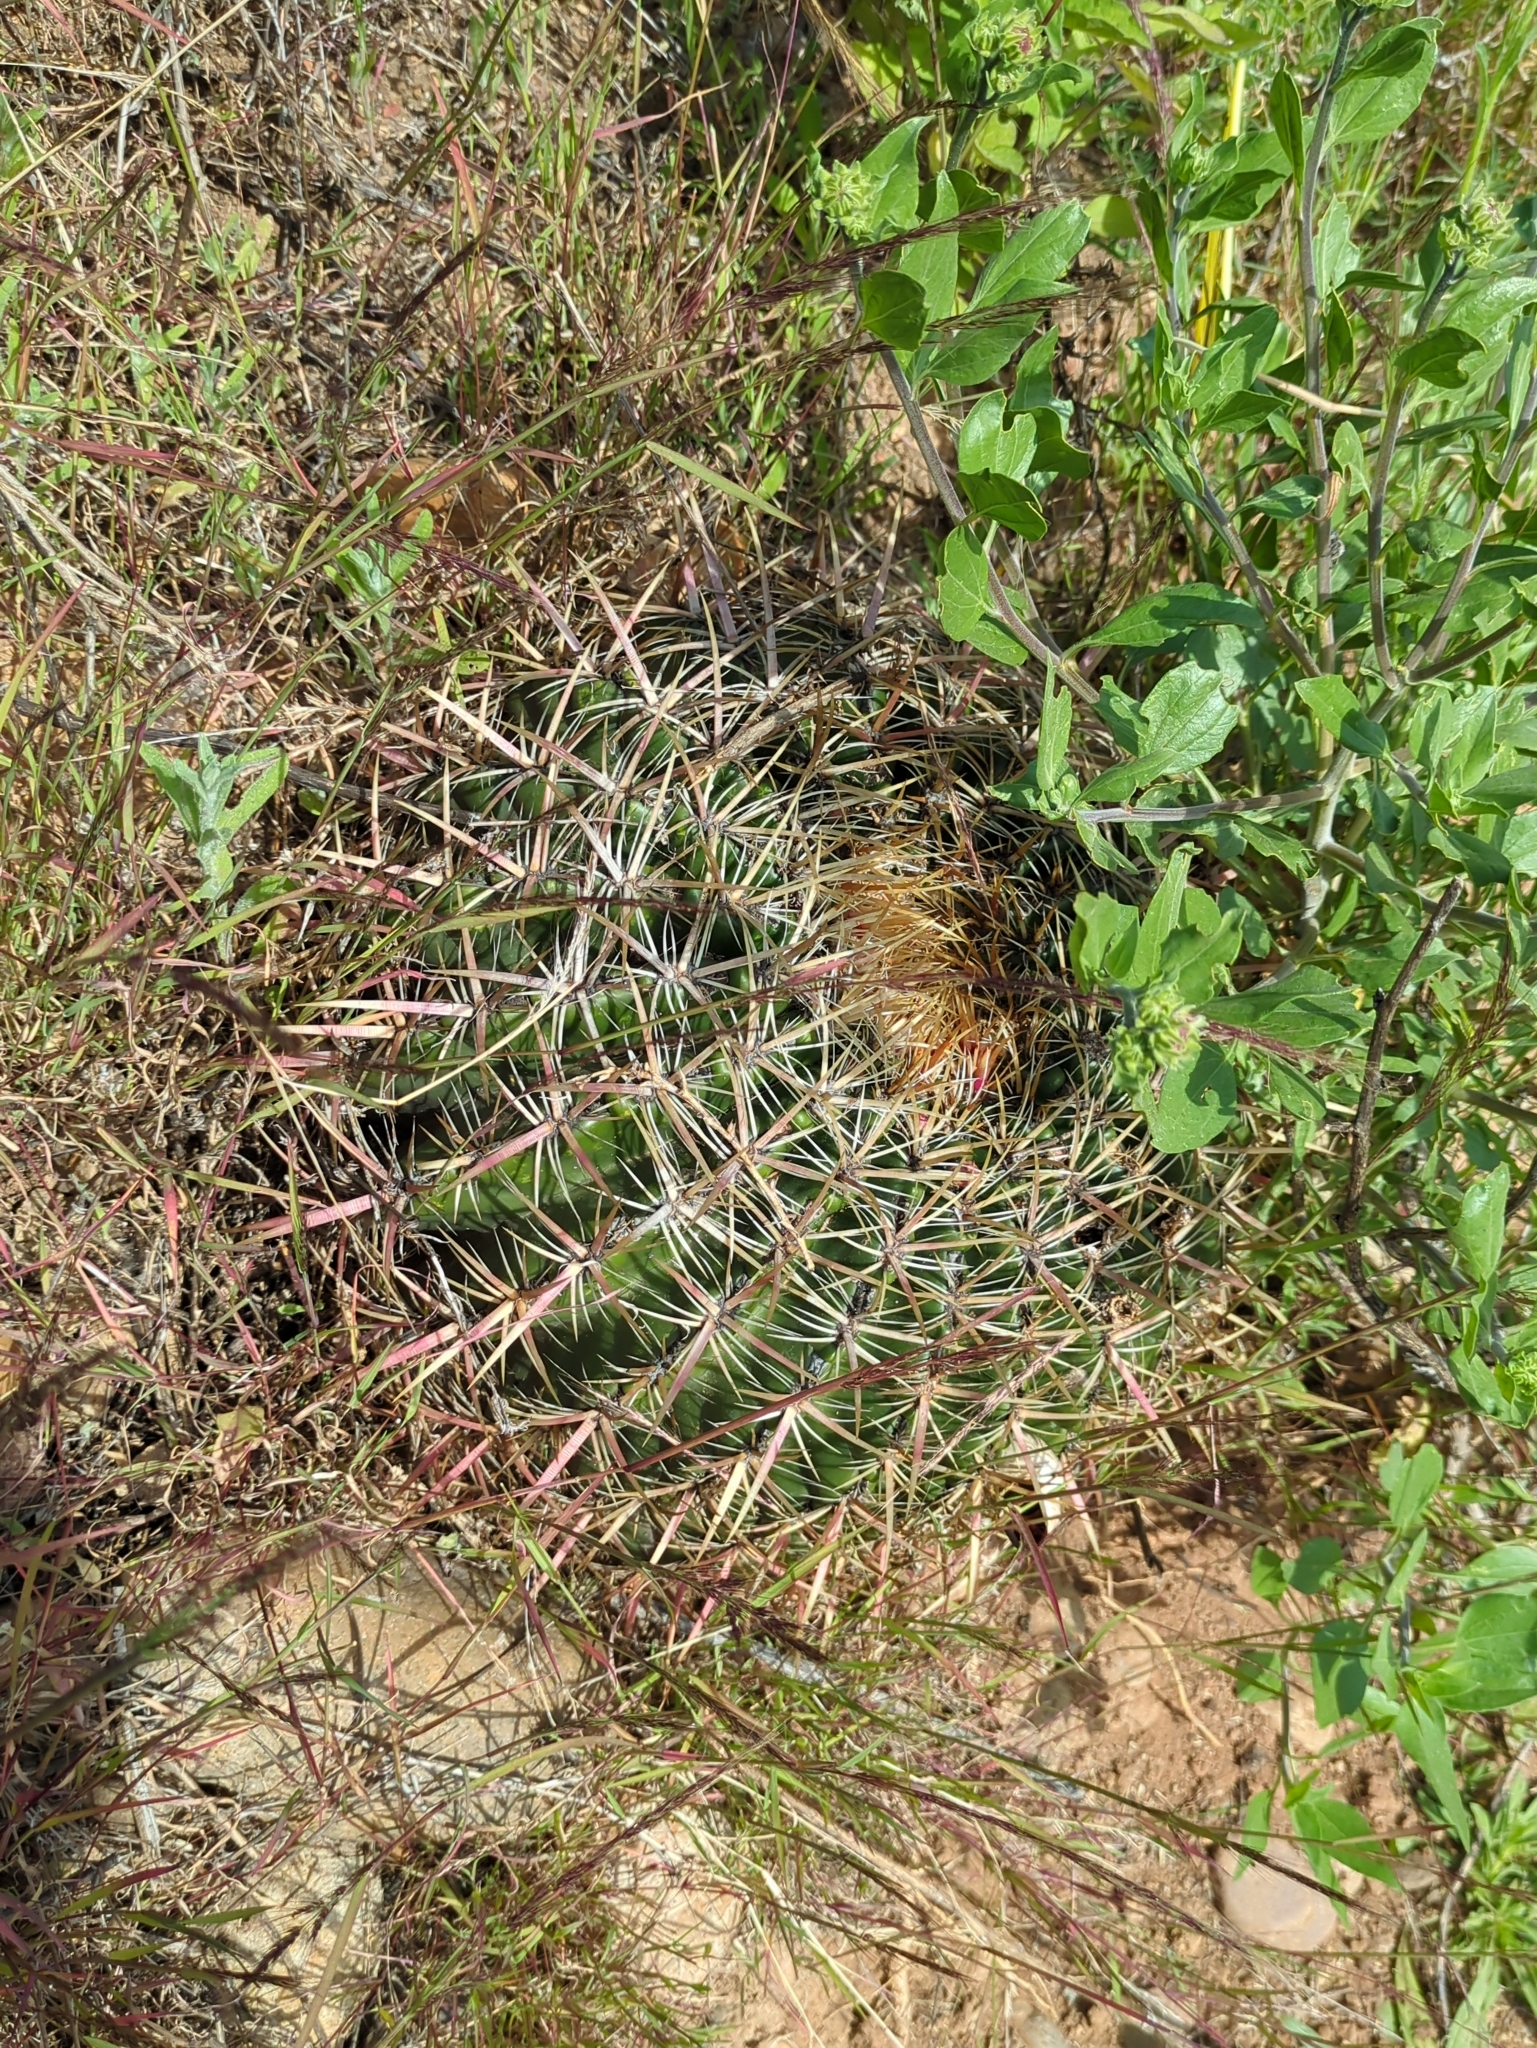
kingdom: Plantae
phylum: Tracheophyta
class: Magnoliopsida
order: Caryophyllales
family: Cactaceae
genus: Ferocactus
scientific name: Ferocactus viridescens
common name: San diego barrel cactus
